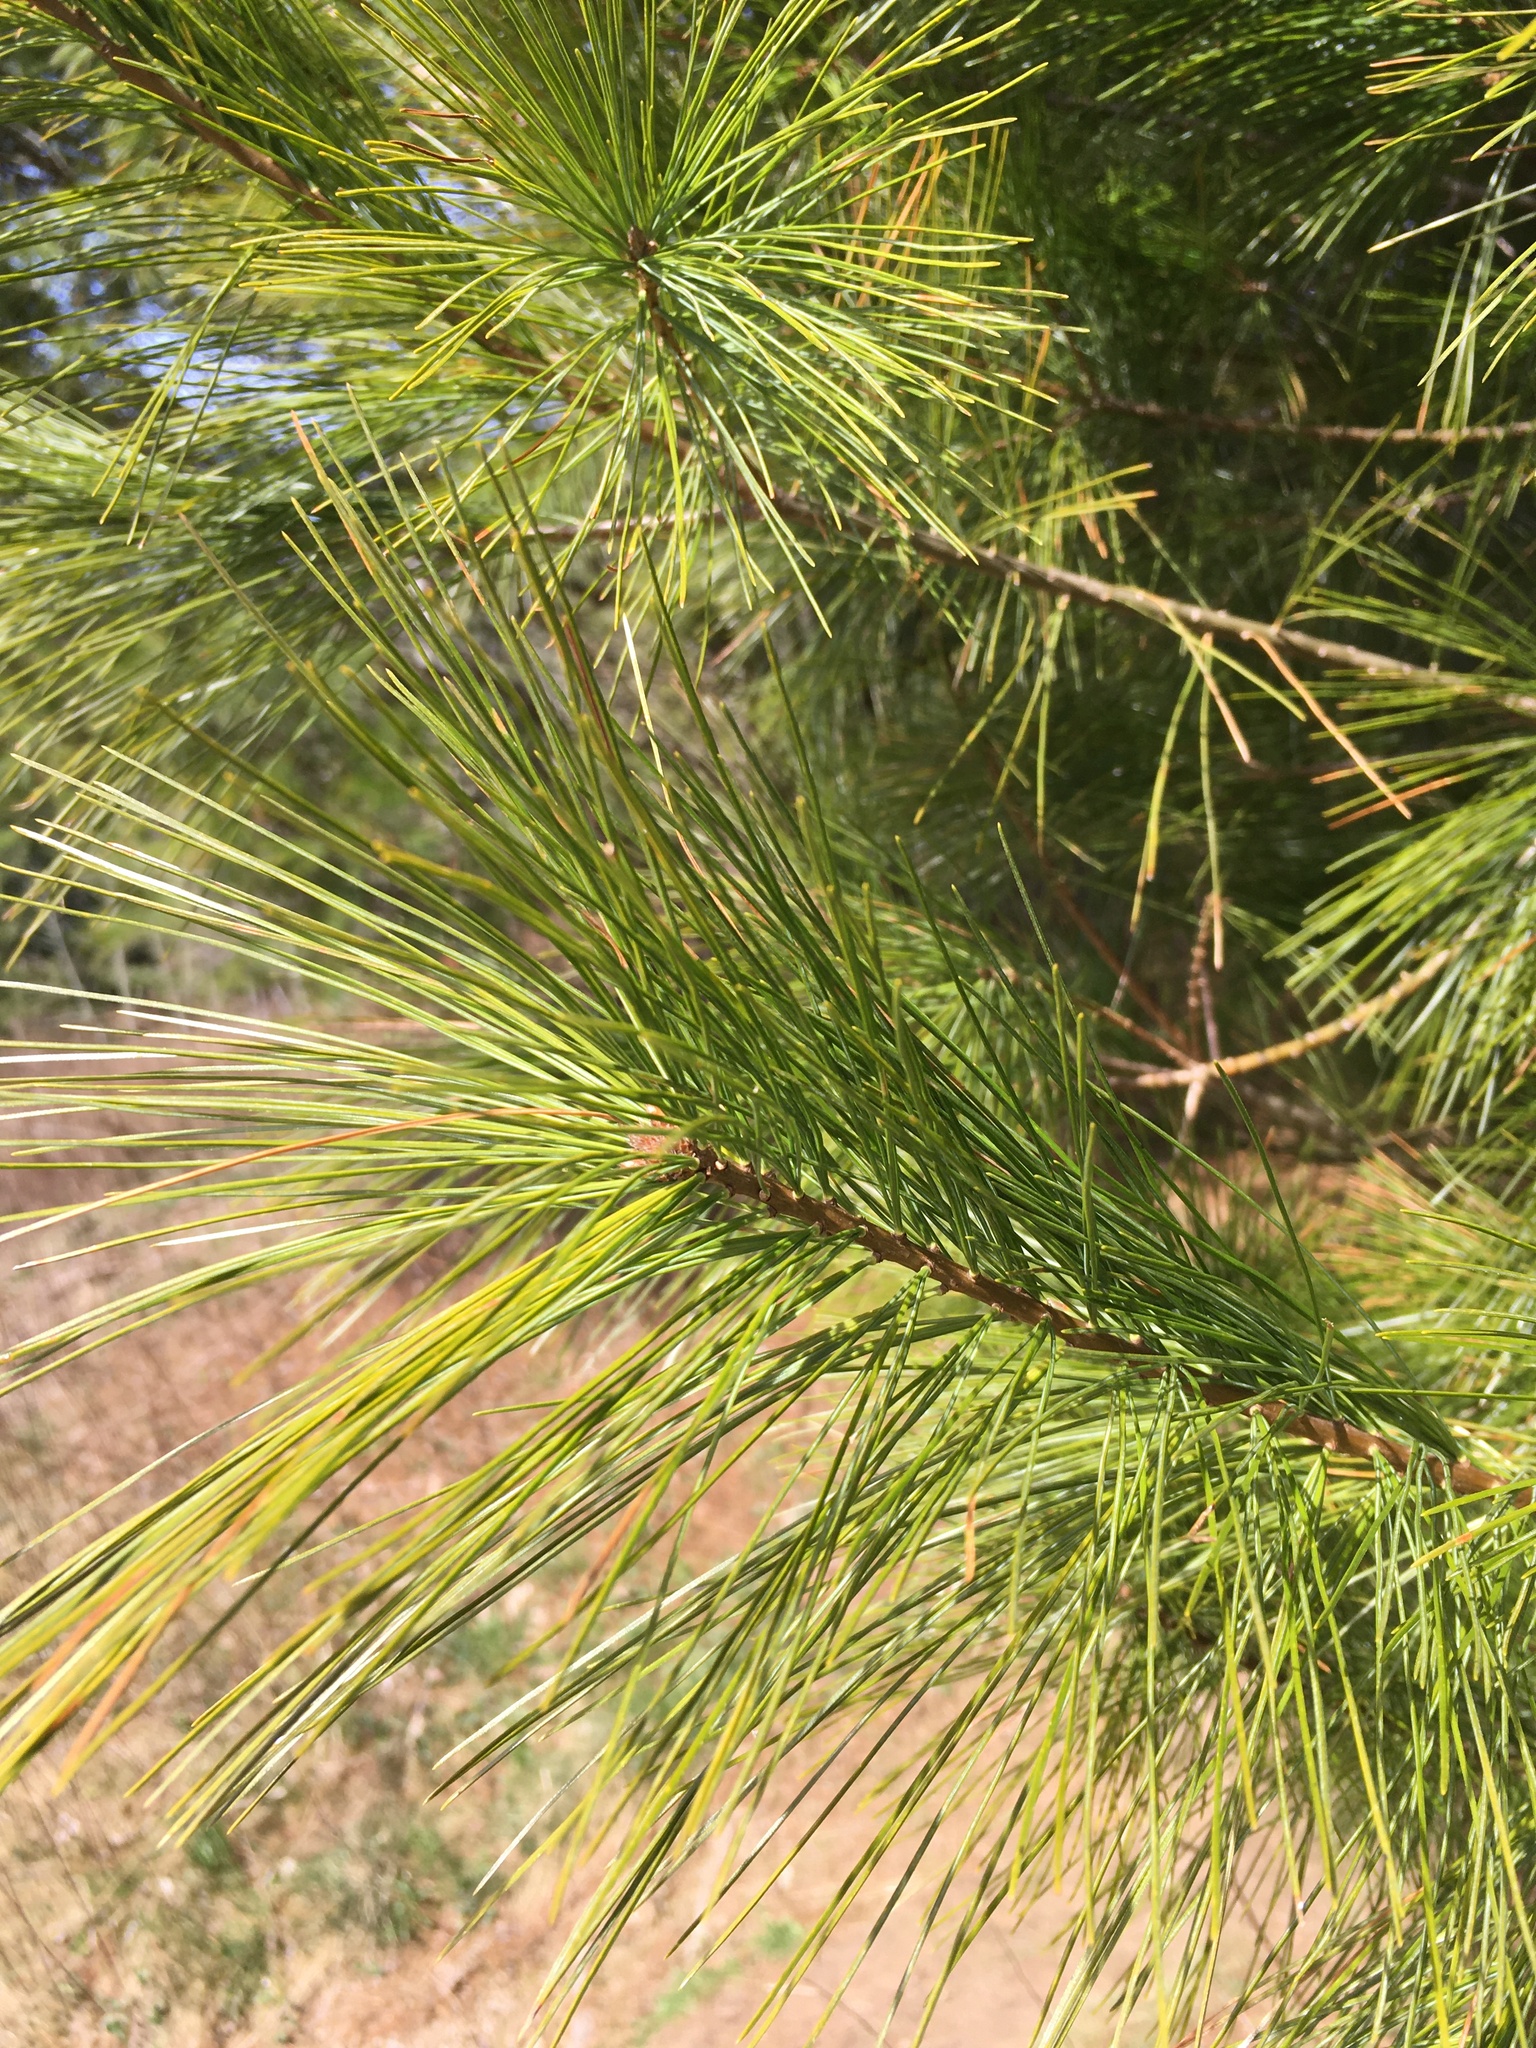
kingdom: Plantae
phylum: Tracheophyta
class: Pinopsida
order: Pinales
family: Pinaceae
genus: Pinus
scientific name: Pinus strobus
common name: Weymouth pine
